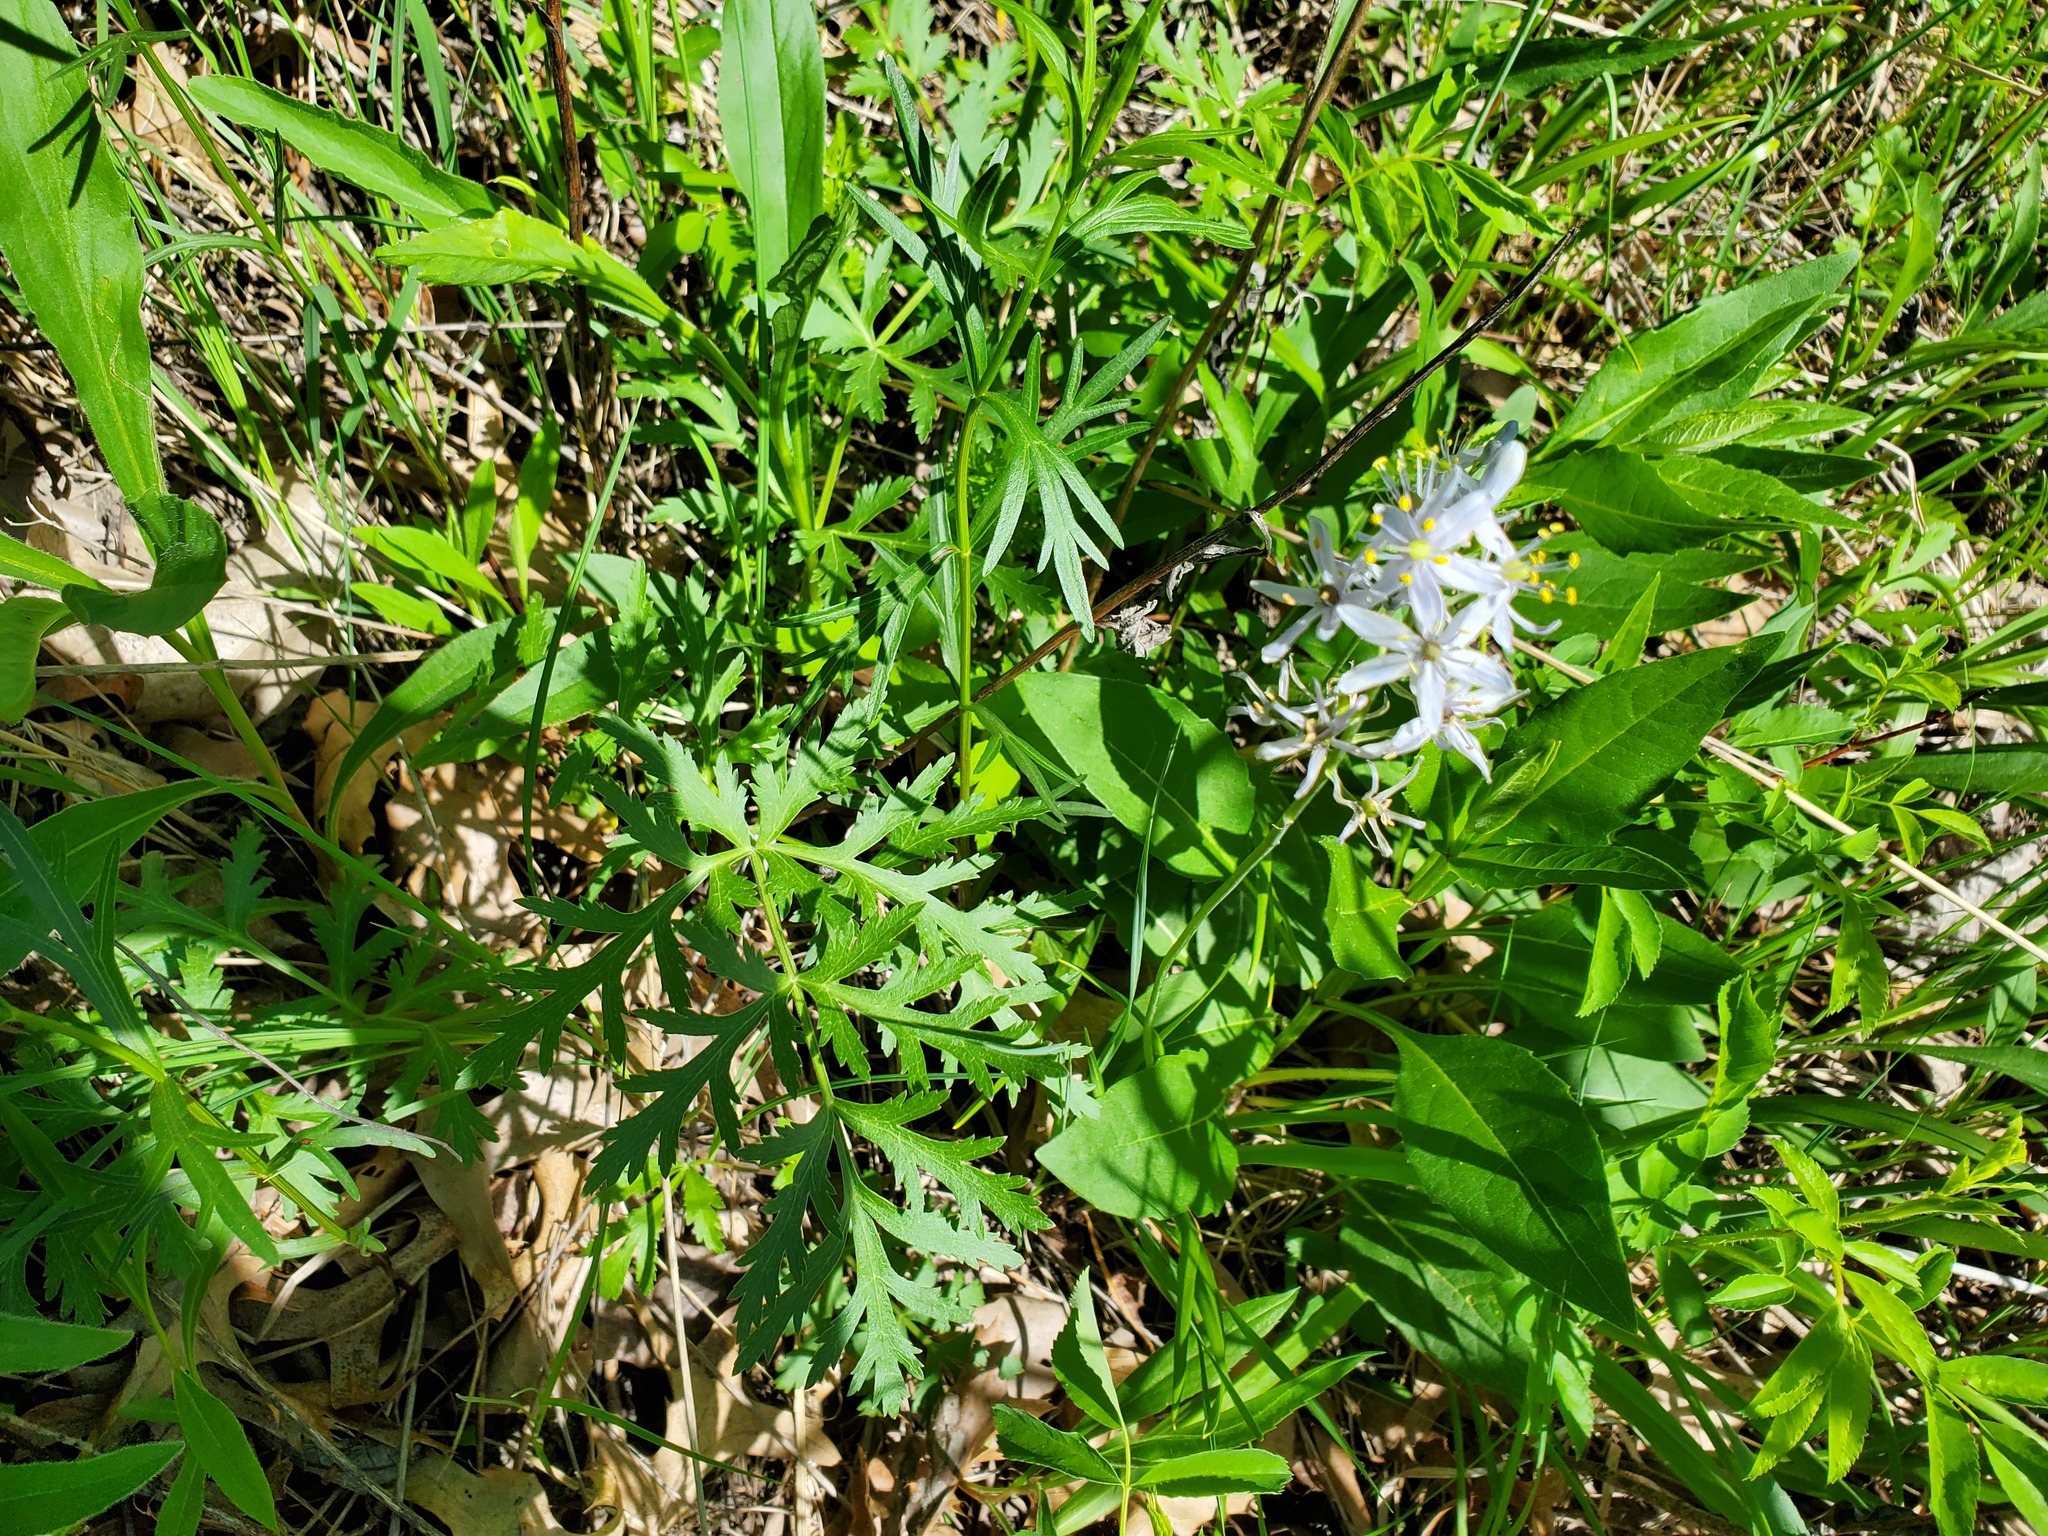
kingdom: Plantae
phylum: Tracheophyta
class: Liliopsida
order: Asparagales
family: Asparagaceae
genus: Camassia
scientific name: Camassia scilloides
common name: Wild hyacinth
